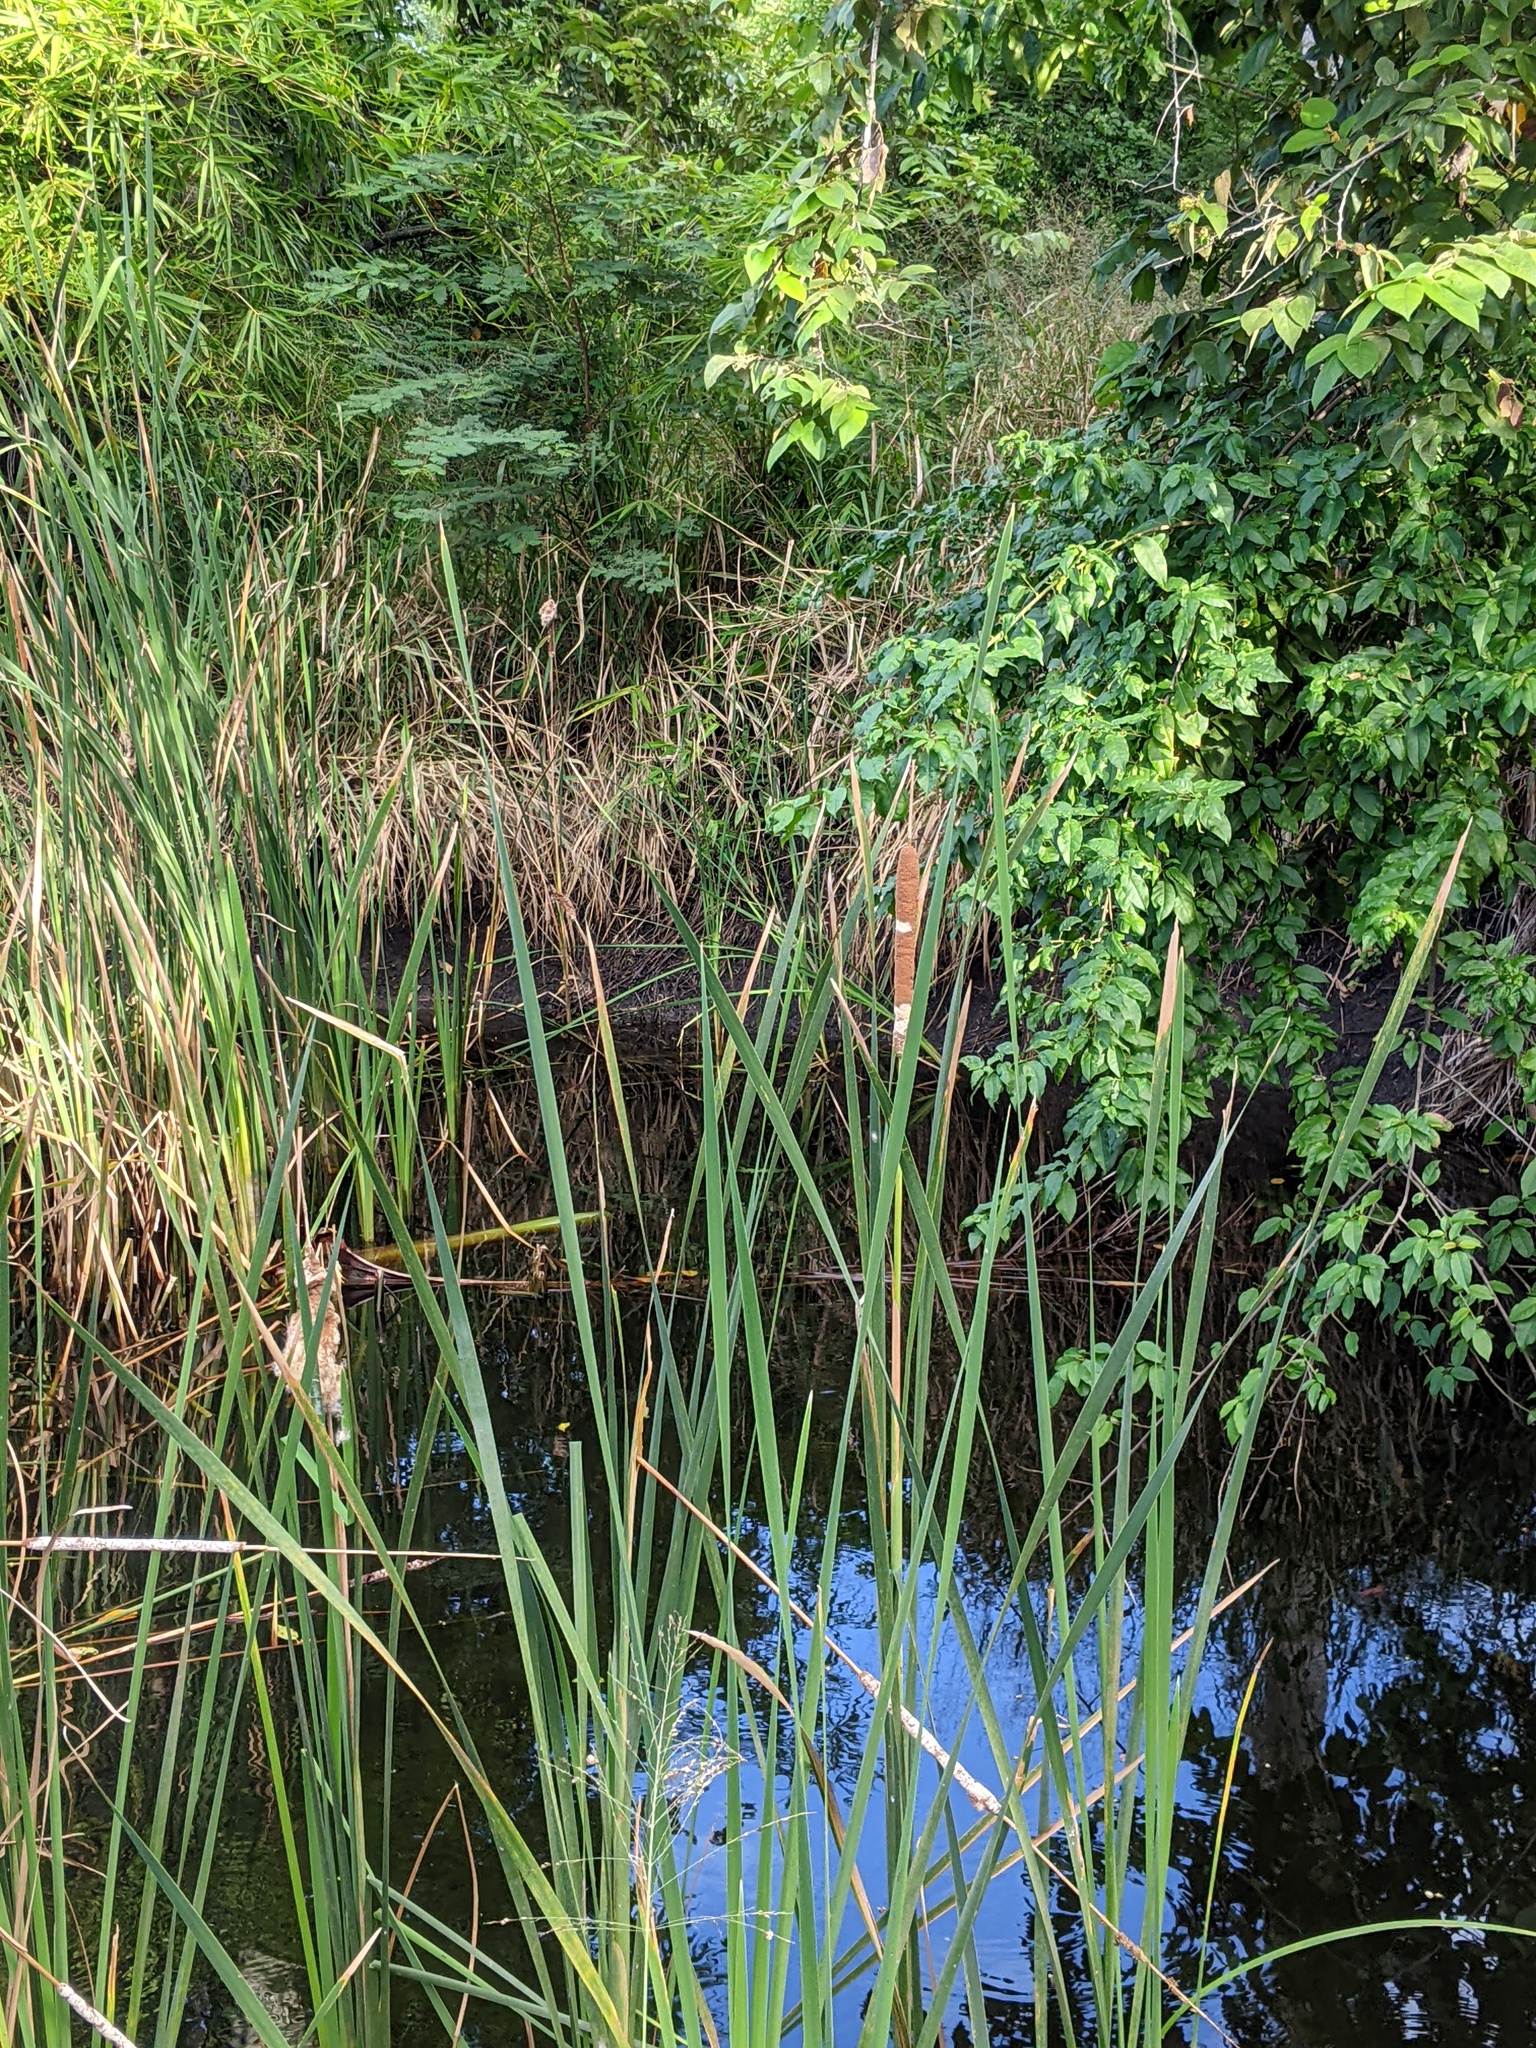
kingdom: Plantae
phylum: Tracheophyta
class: Liliopsida
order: Poales
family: Typhaceae
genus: Typha
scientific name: Typha domingensis
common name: Southern cattail
